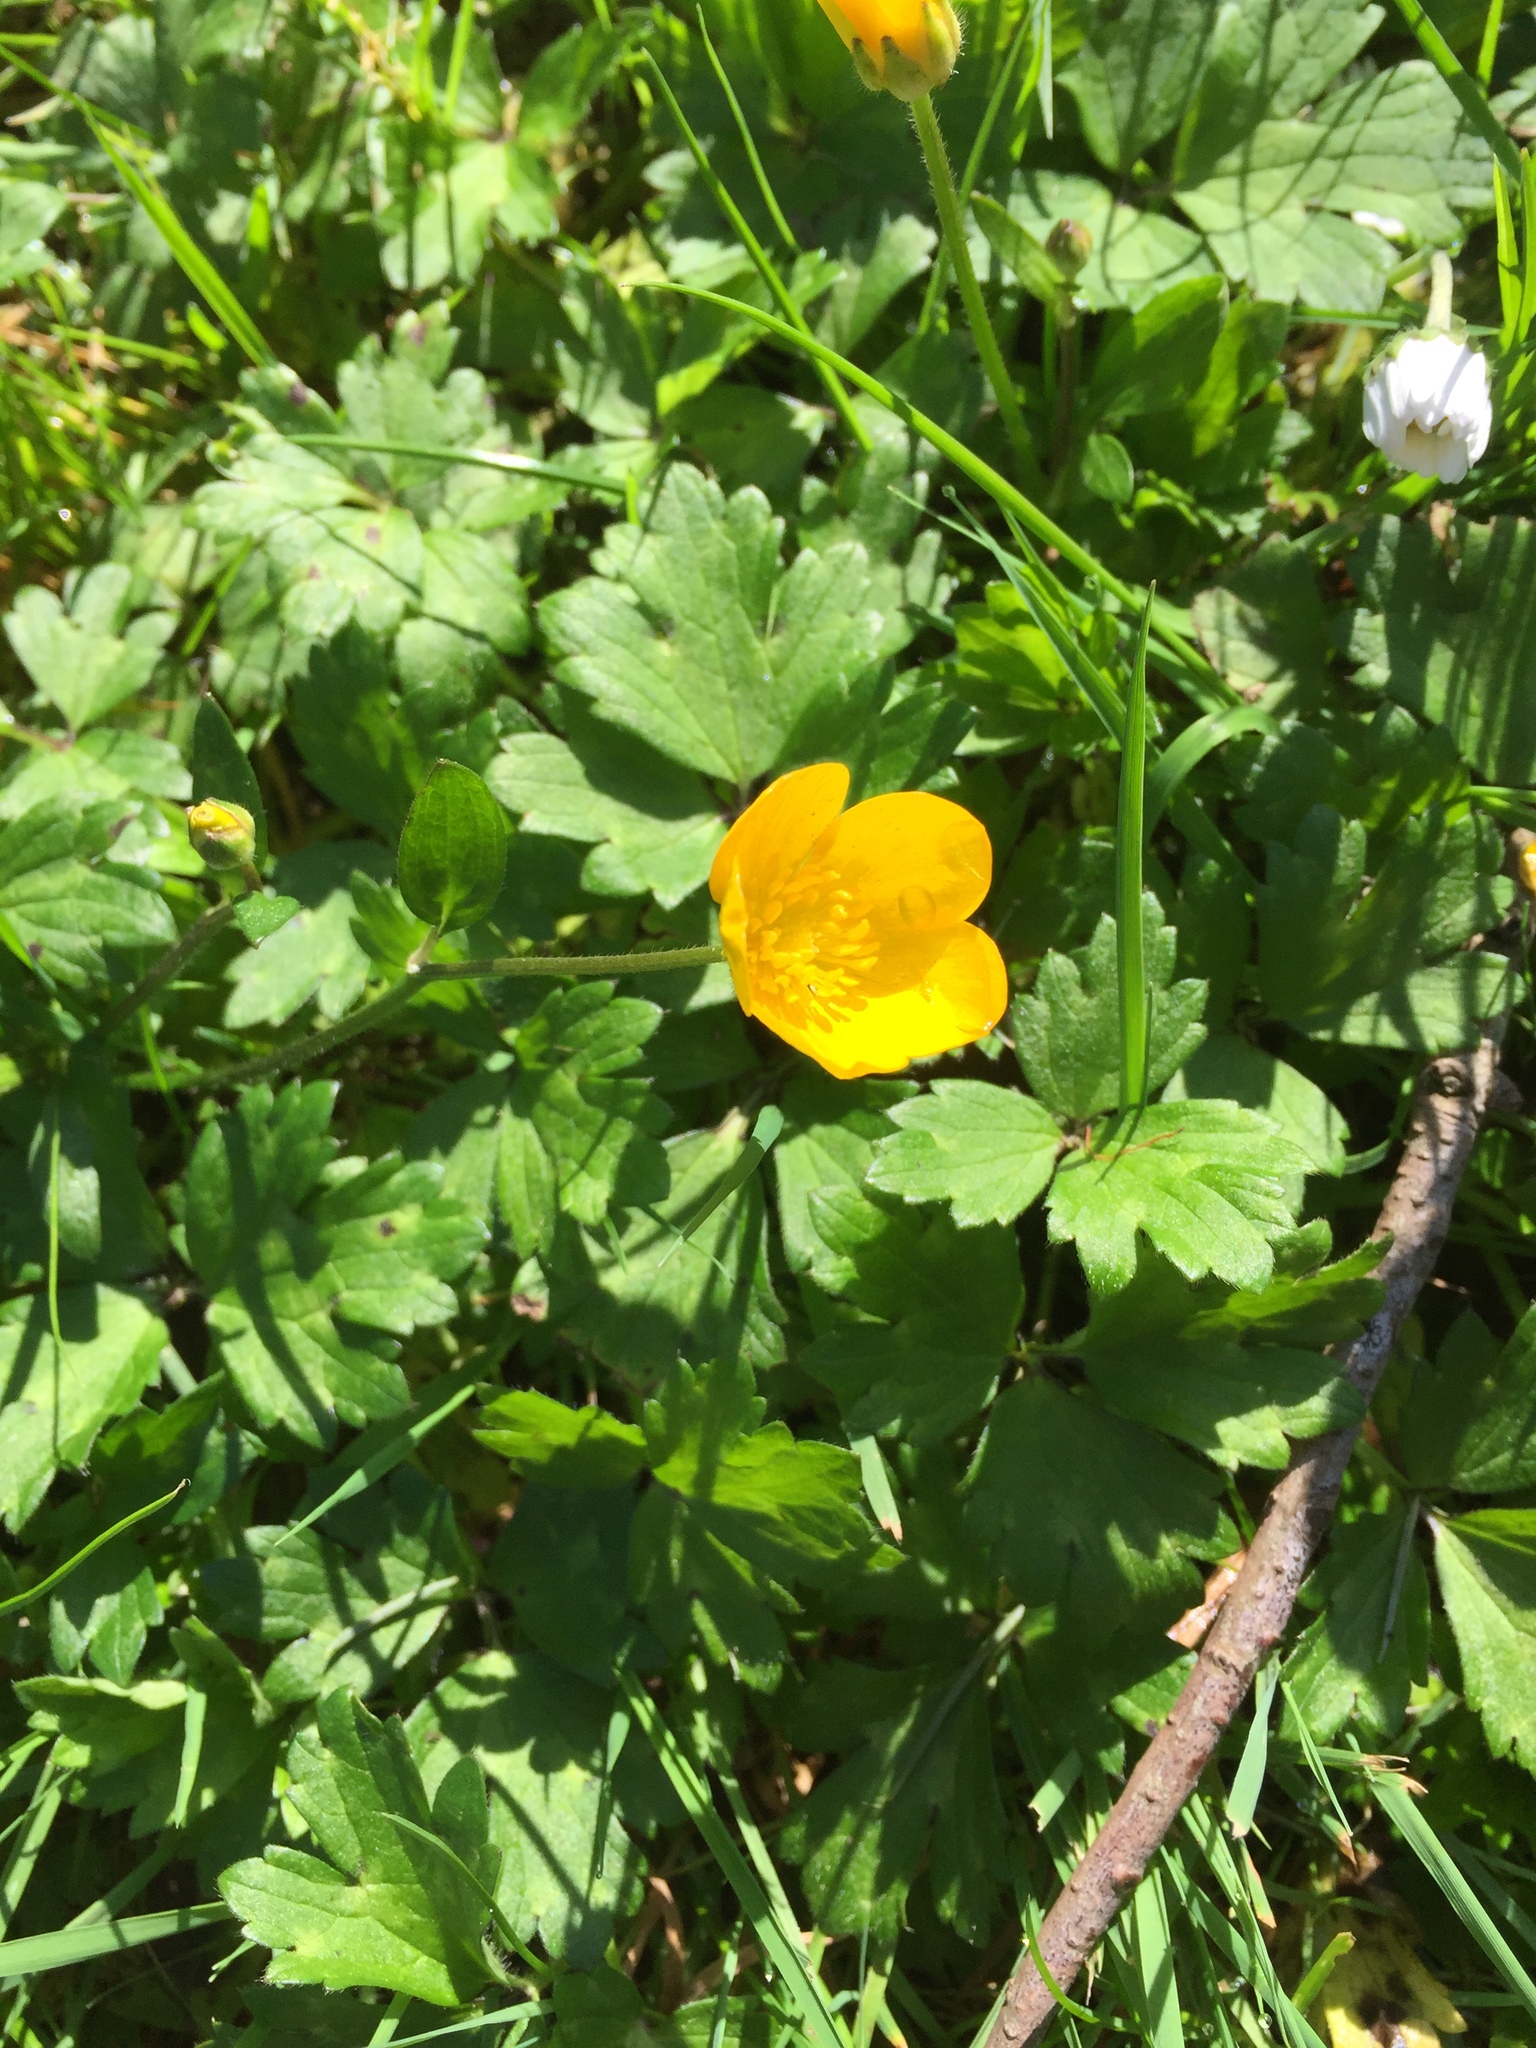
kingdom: Plantae
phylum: Tracheophyta
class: Magnoliopsida
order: Ranunculales
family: Ranunculaceae
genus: Ranunculus
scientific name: Ranunculus repens
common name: Creeping buttercup
